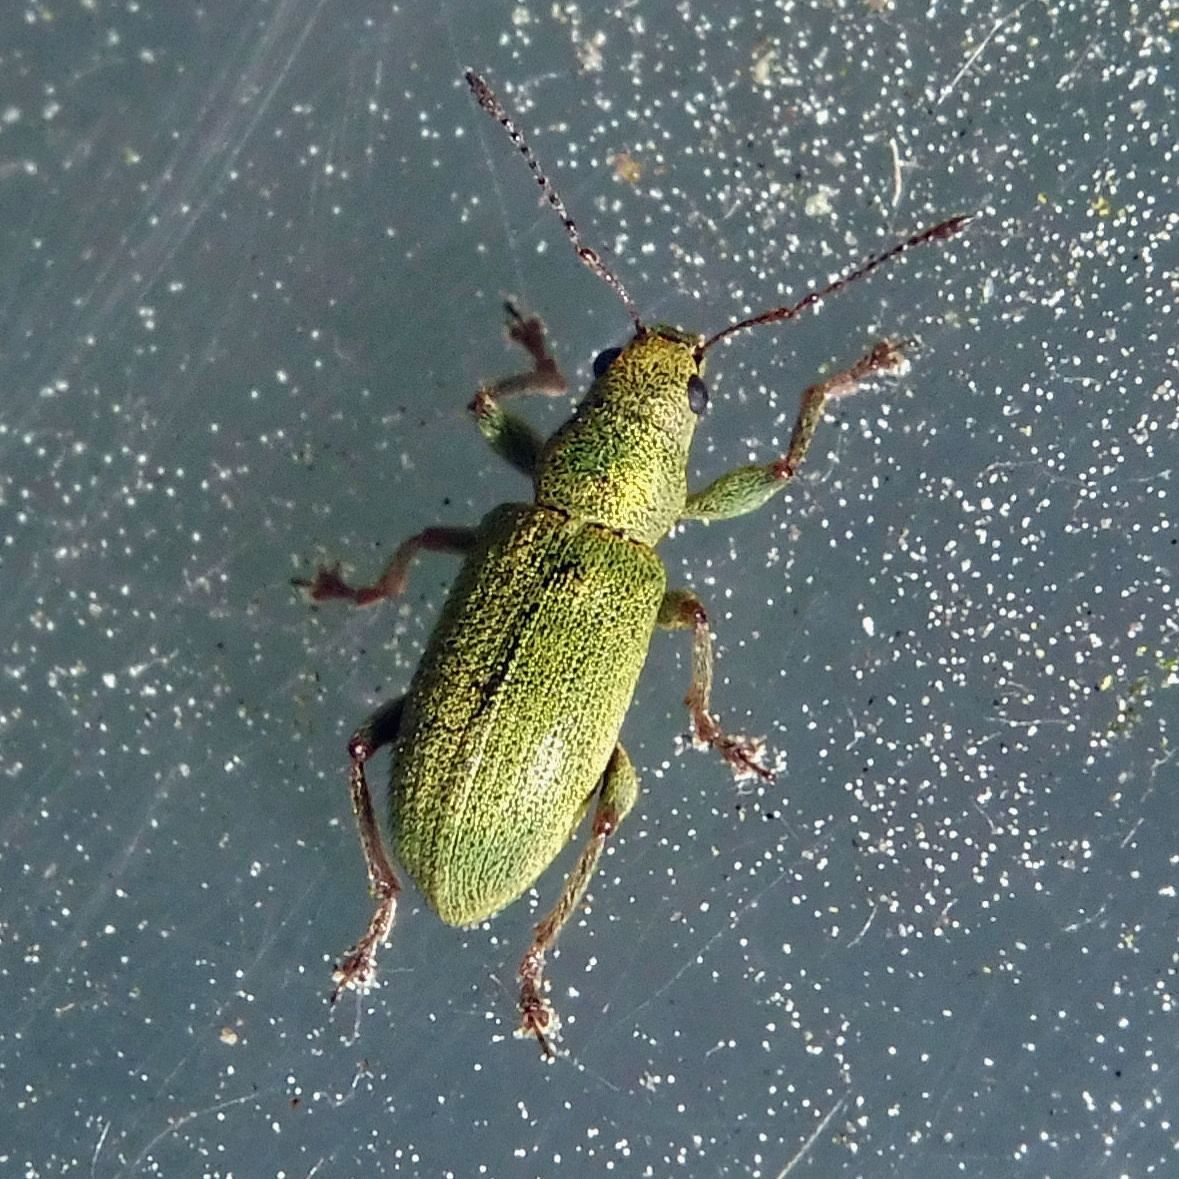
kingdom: Animalia
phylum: Arthropoda
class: Insecta
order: Coleoptera
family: Curculionidae
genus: Pachyrhinus
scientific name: Pachyrhinus lethierryi
